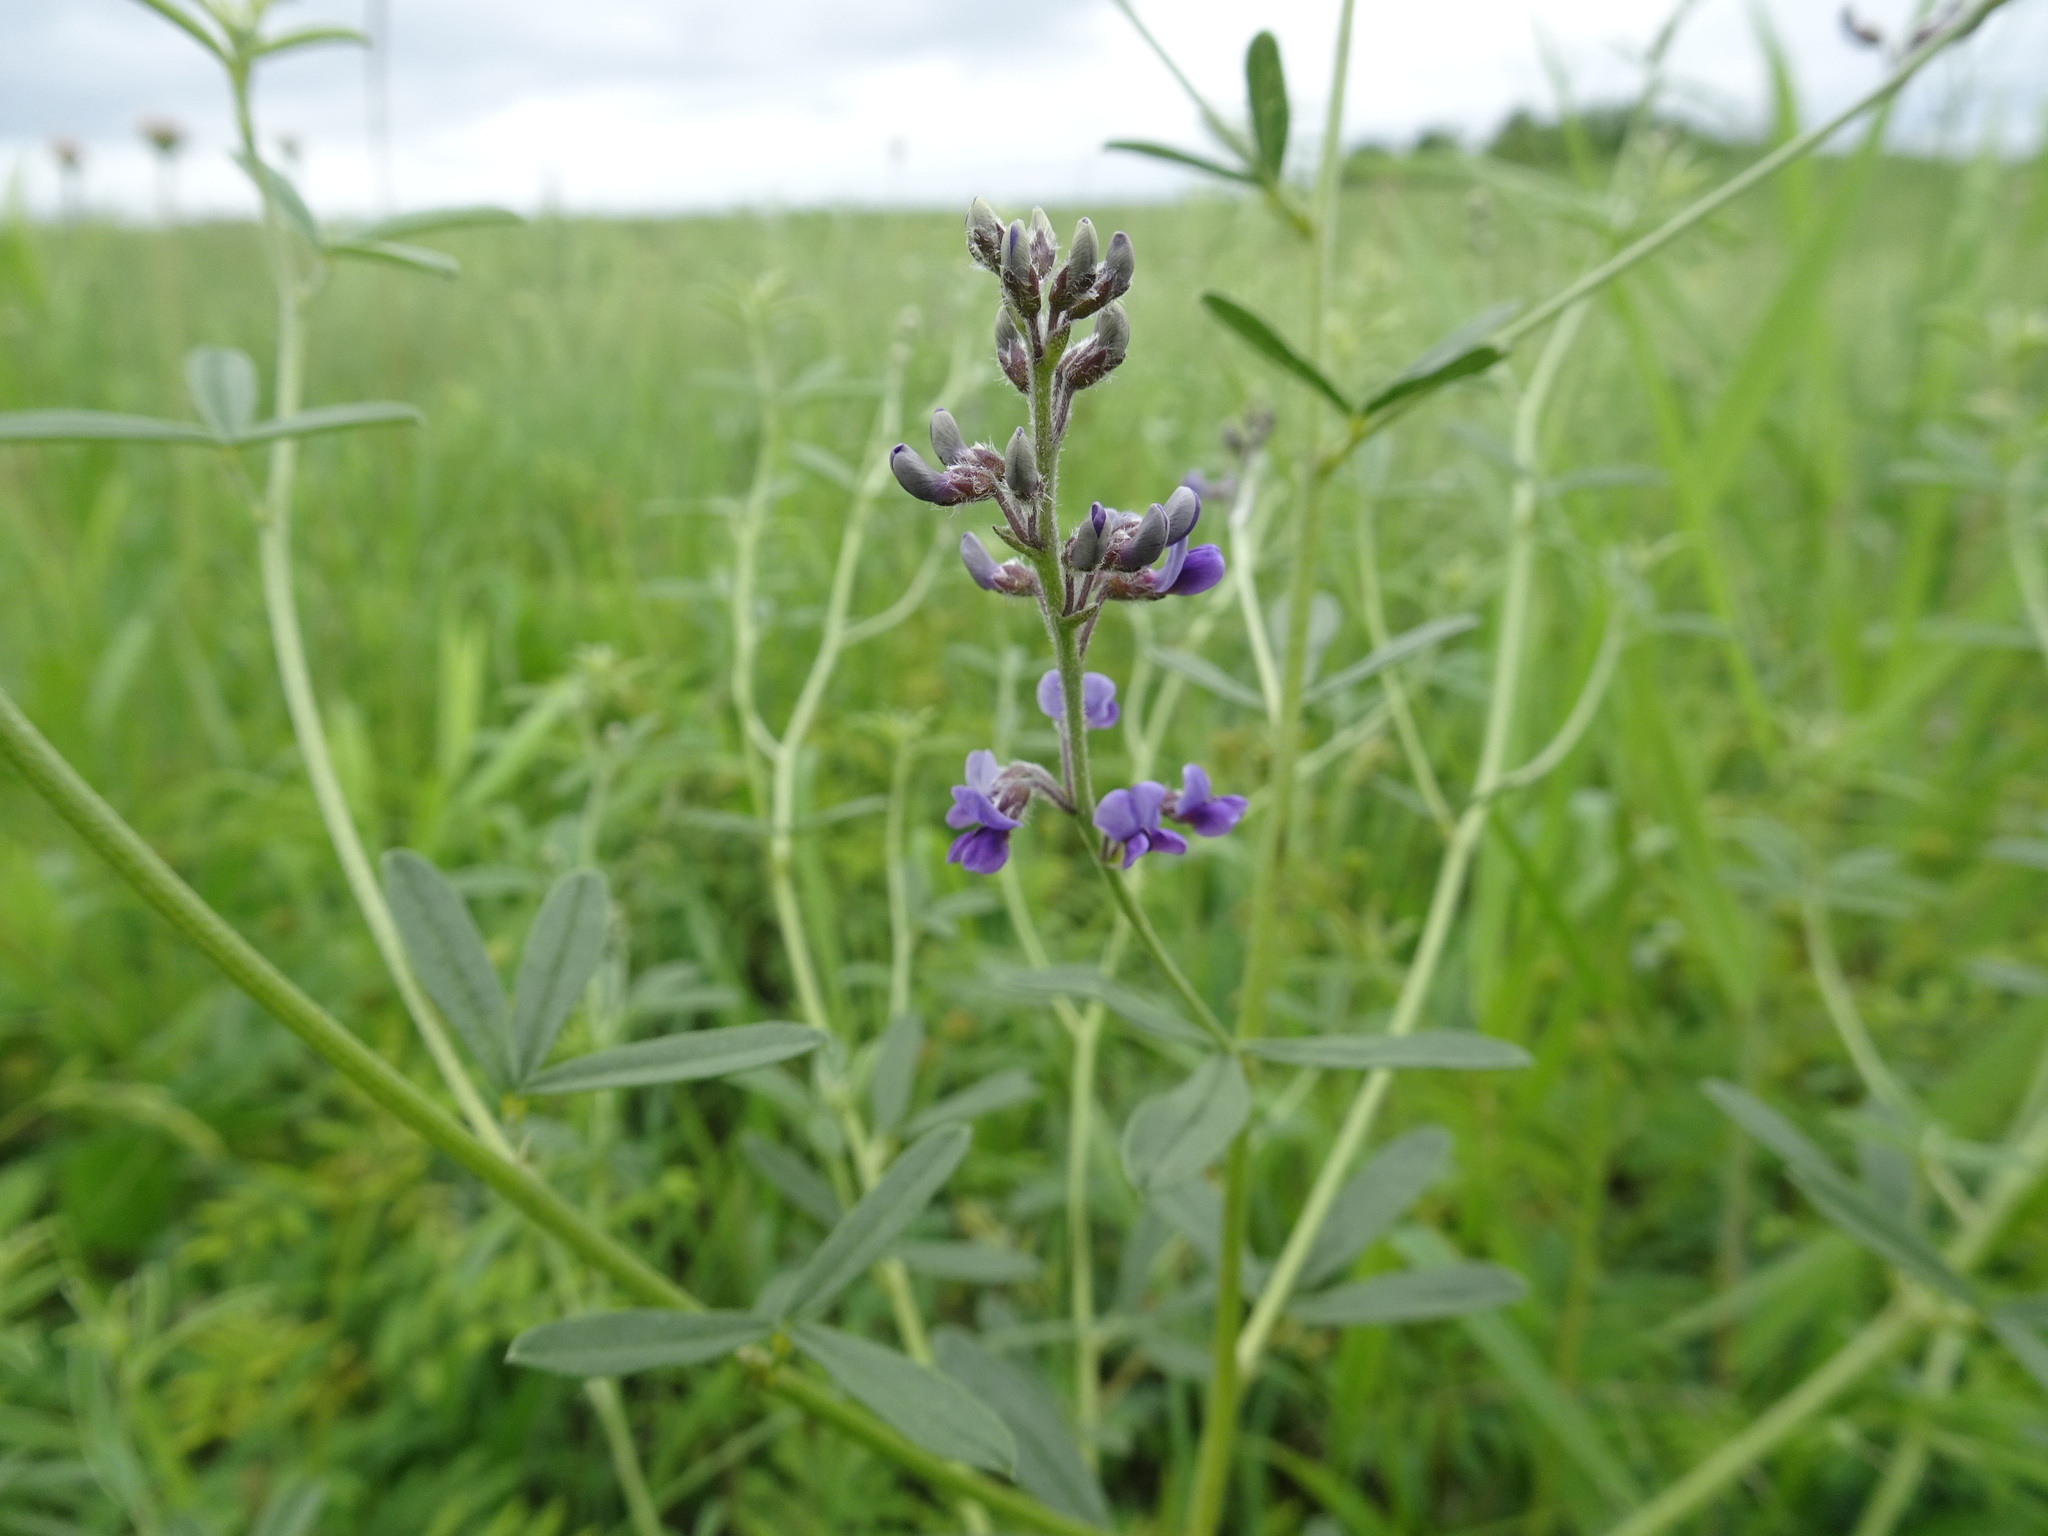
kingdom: Plantae
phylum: Tracheophyta
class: Magnoliopsida
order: Fabales
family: Fabaceae
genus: Pediomelum
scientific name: Pediomelum tenuiflorum
